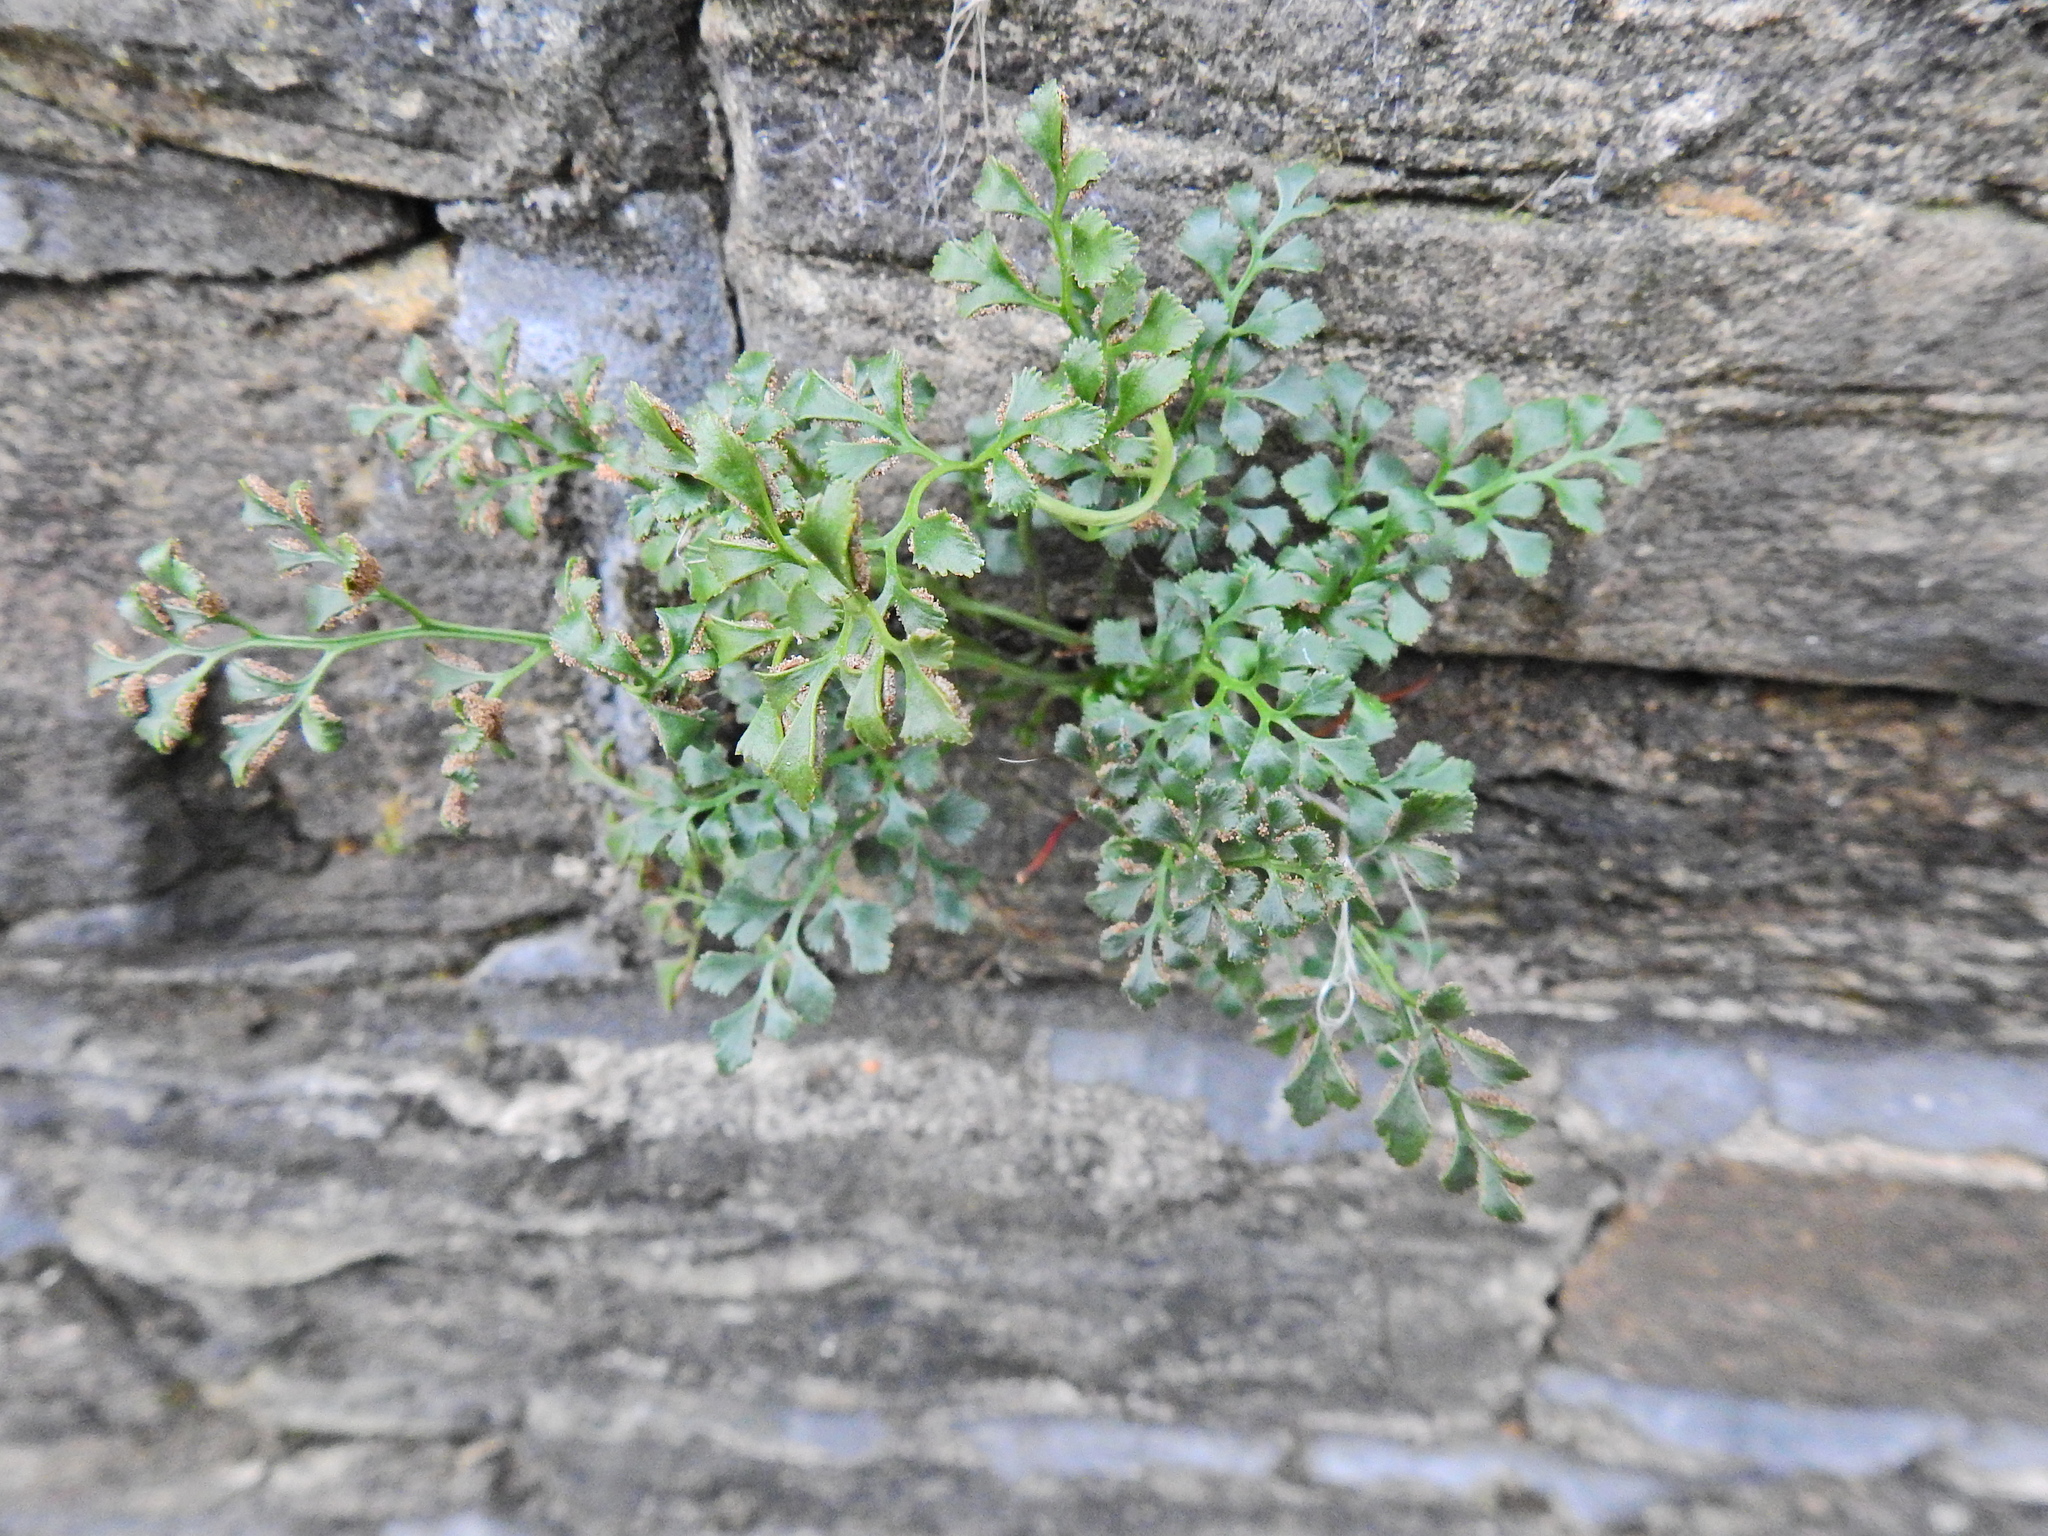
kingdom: Plantae
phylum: Tracheophyta
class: Polypodiopsida
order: Polypodiales
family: Aspleniaceae
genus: Asplenium
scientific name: Asplenium ruta-muraria
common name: Wall-rue
